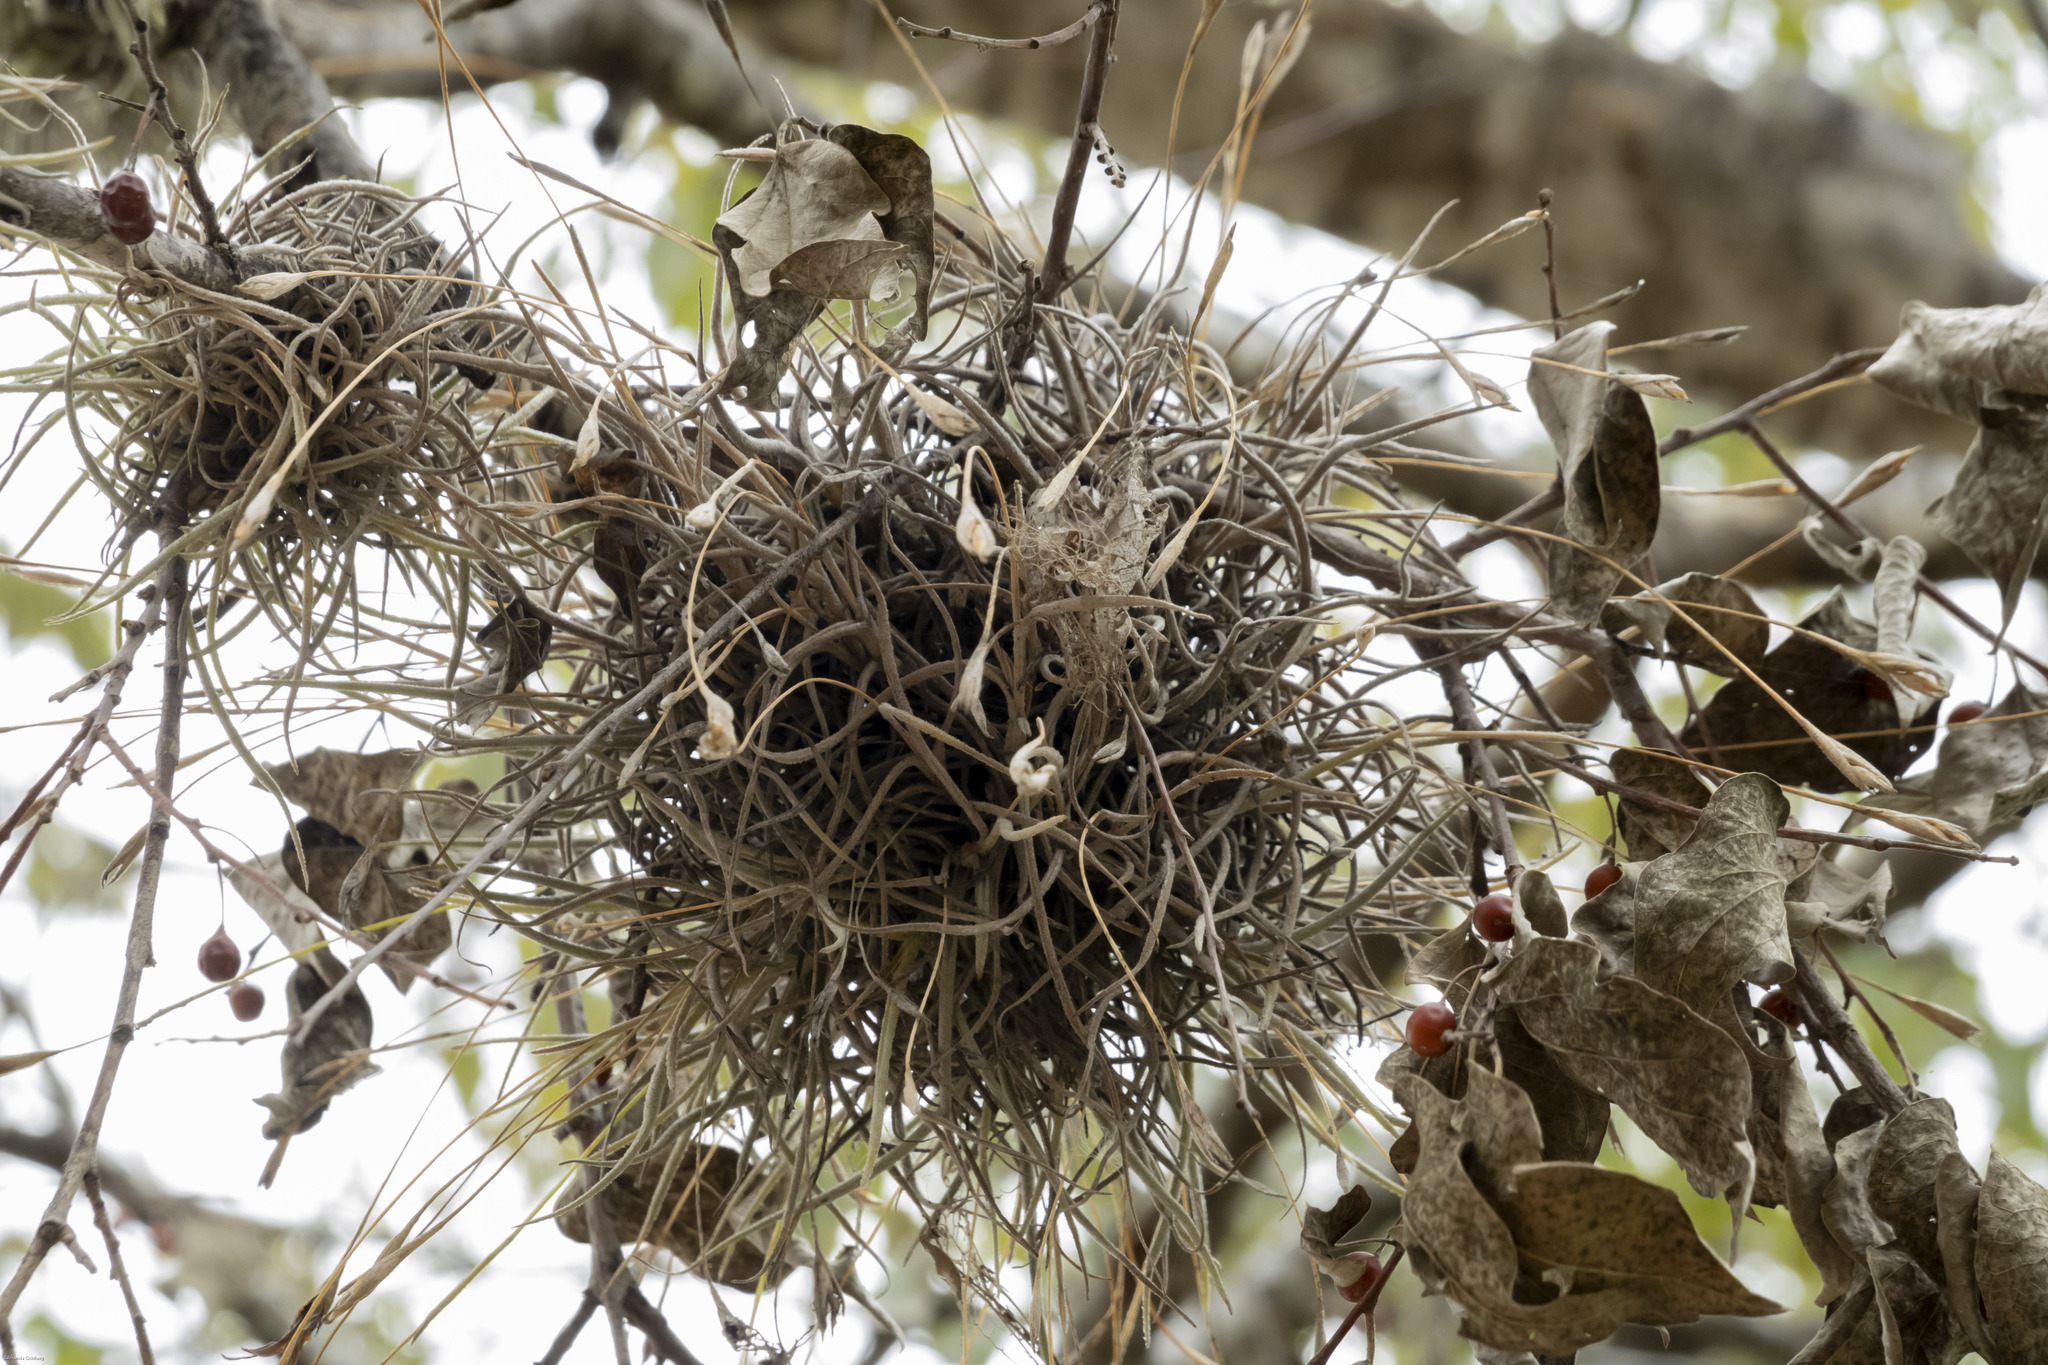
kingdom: Plantae
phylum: Tracheophyta
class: Liliopsida
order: Poales
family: Bromeliaceae
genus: Tillandsia
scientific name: Tillandsia recurvata
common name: Small ballmoss
